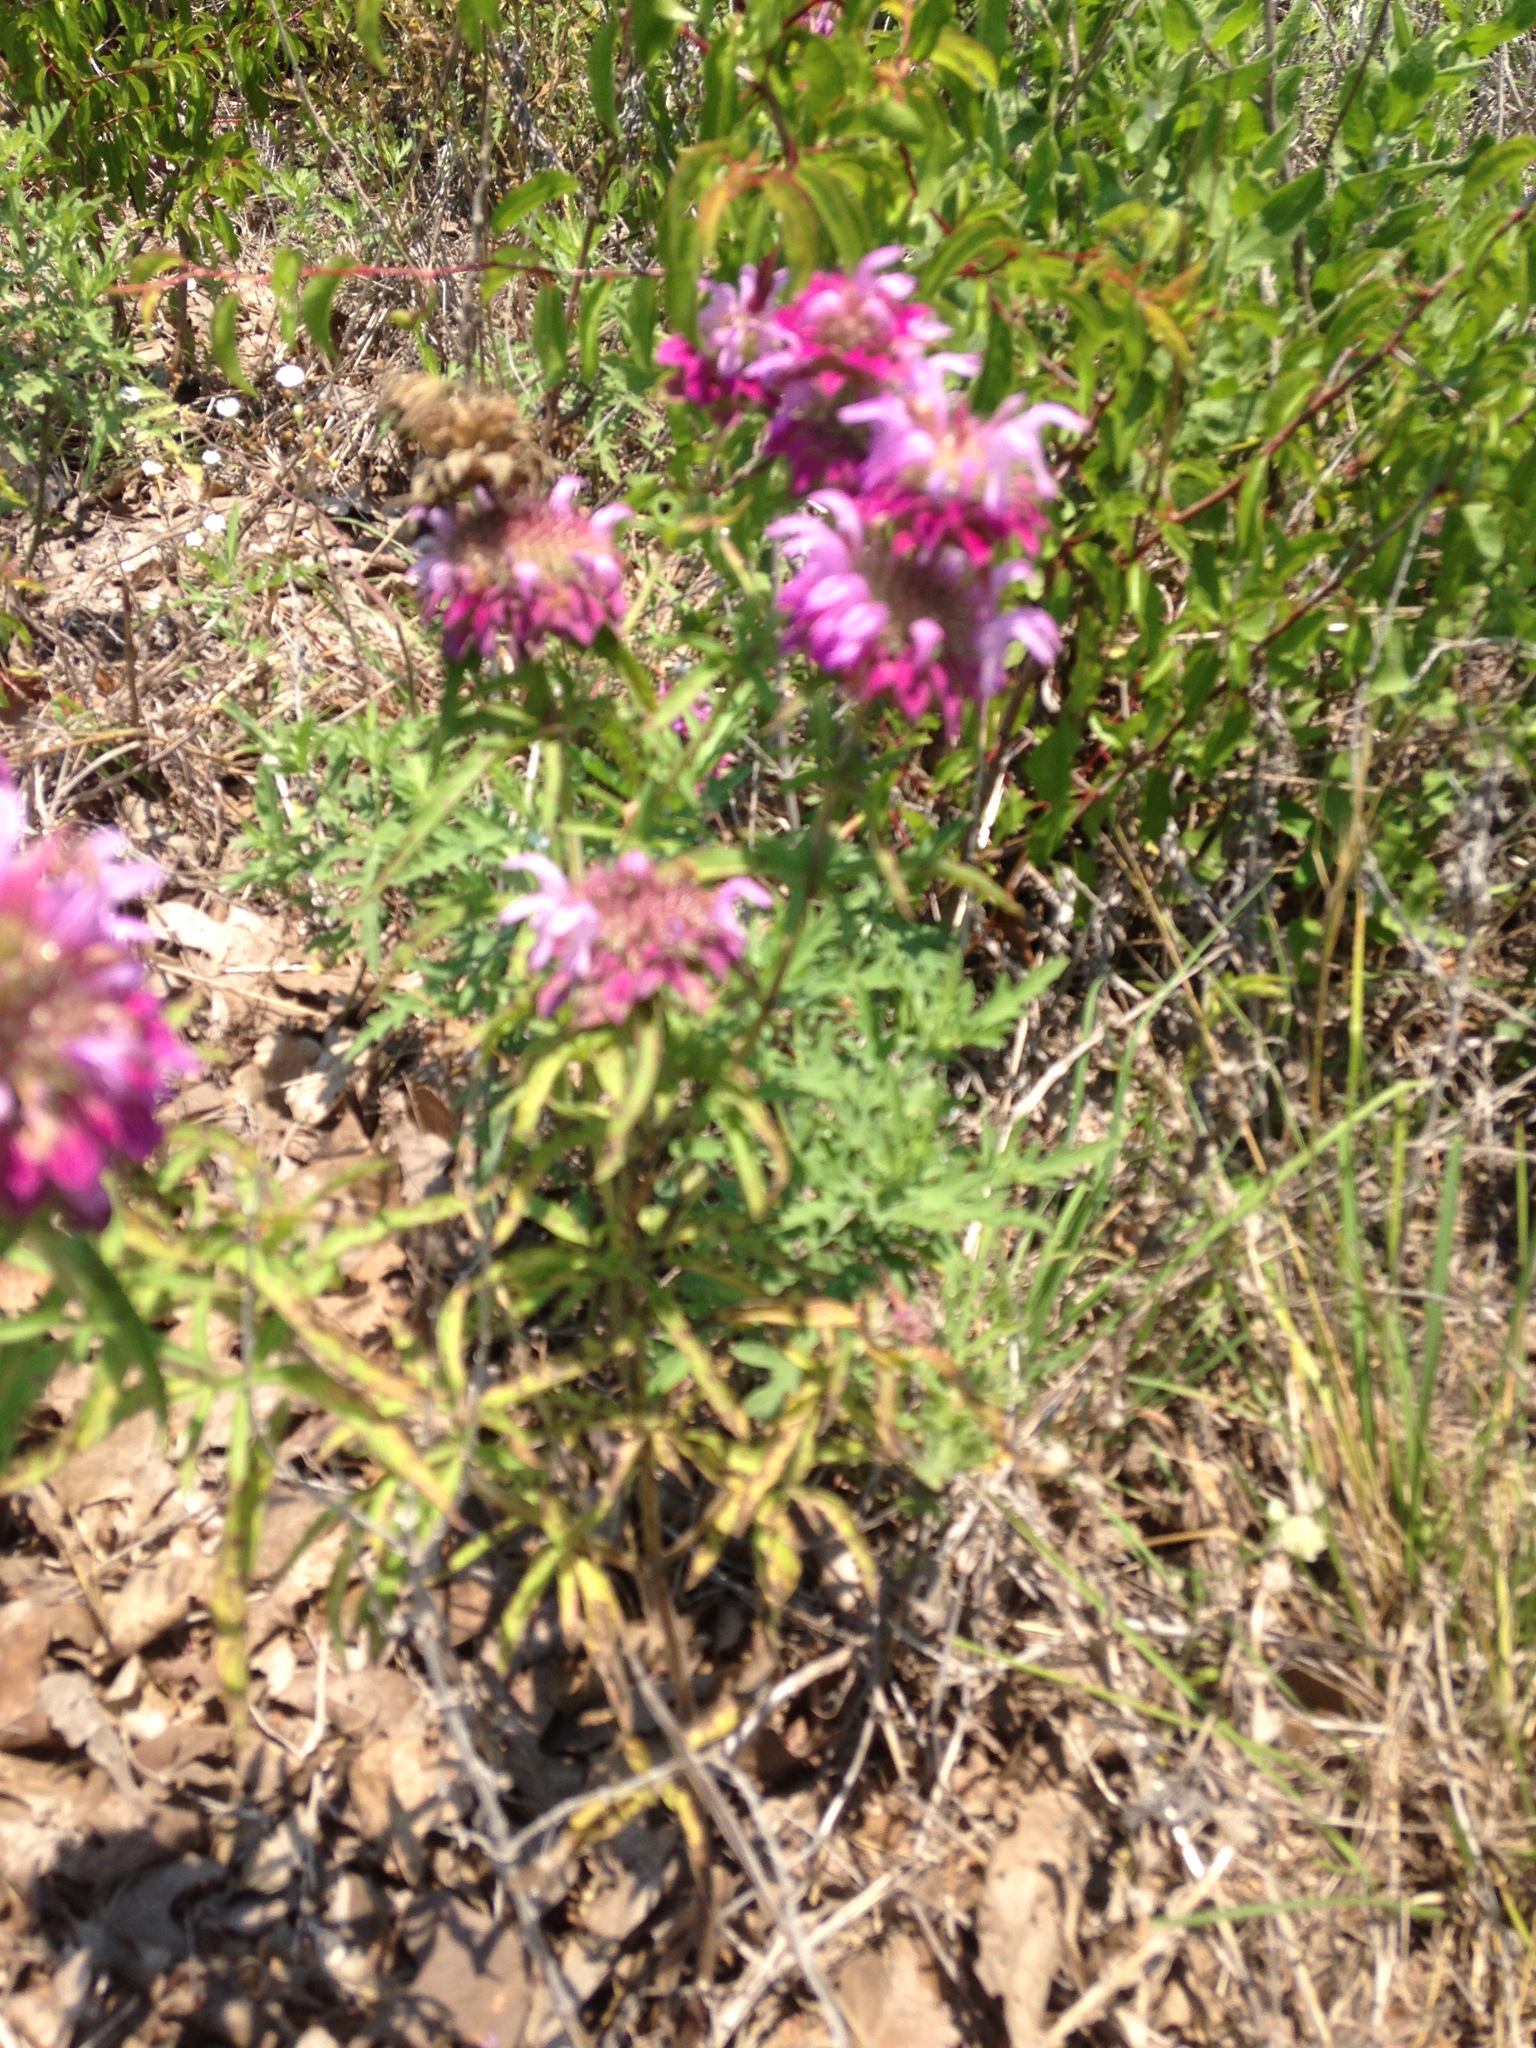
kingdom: Plantae
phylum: Tracheophyta
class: Magnoliopsida
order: Lamiales
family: Lamiaceae
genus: Monarda
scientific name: Monarda citriodora
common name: Lemon beebalm
